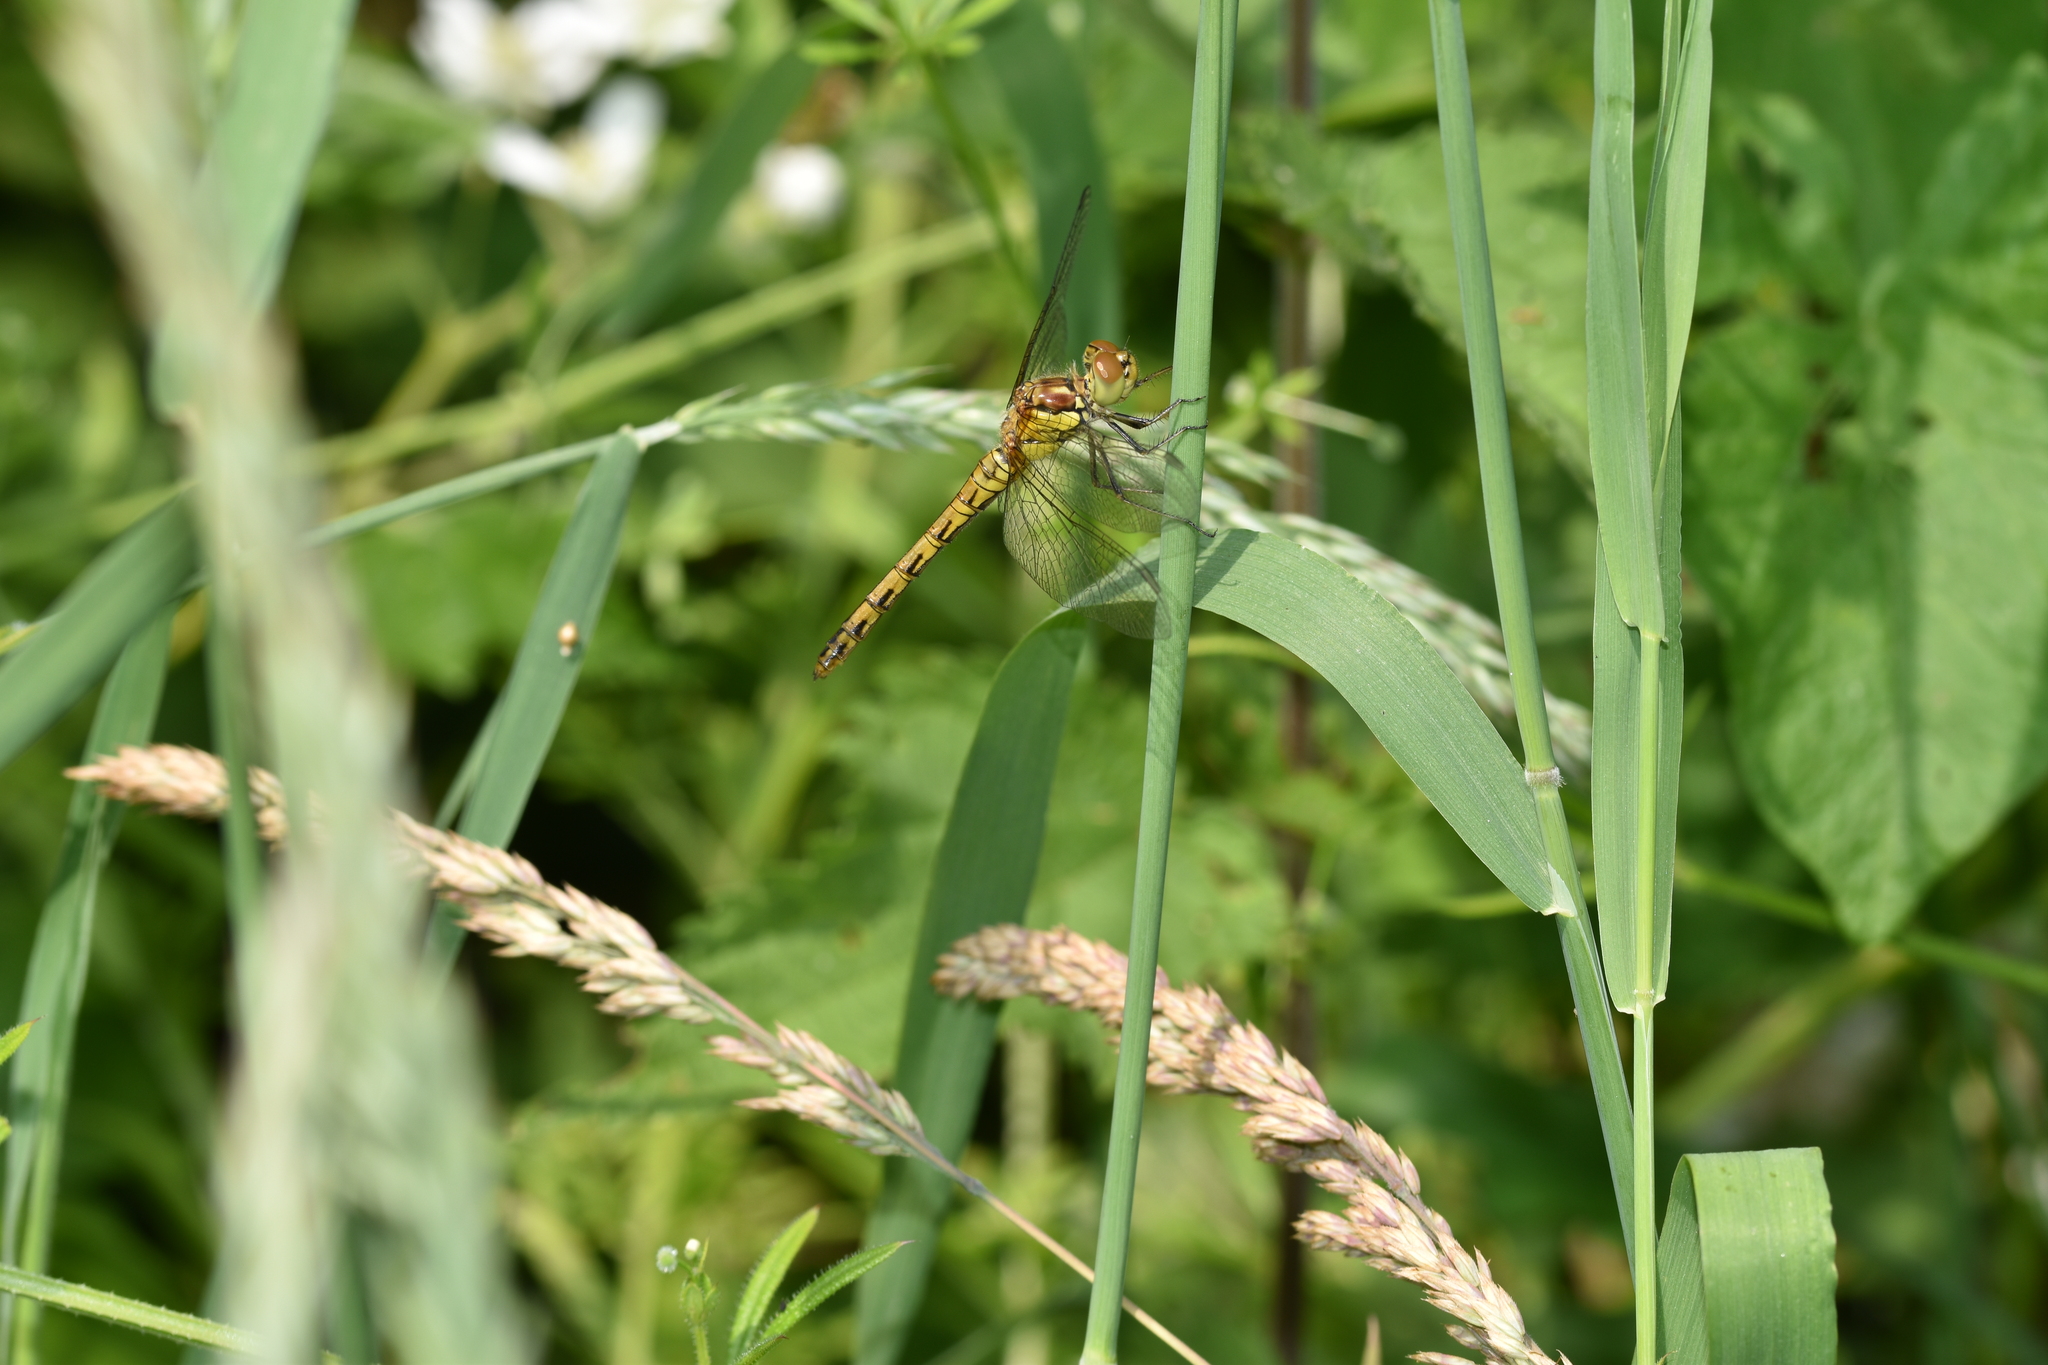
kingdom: Animalia
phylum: Arthropoda
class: Insecta
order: Odonata
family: Libellulidae
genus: Sympetrum
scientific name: Sympetrum striolatum
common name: Common darter
